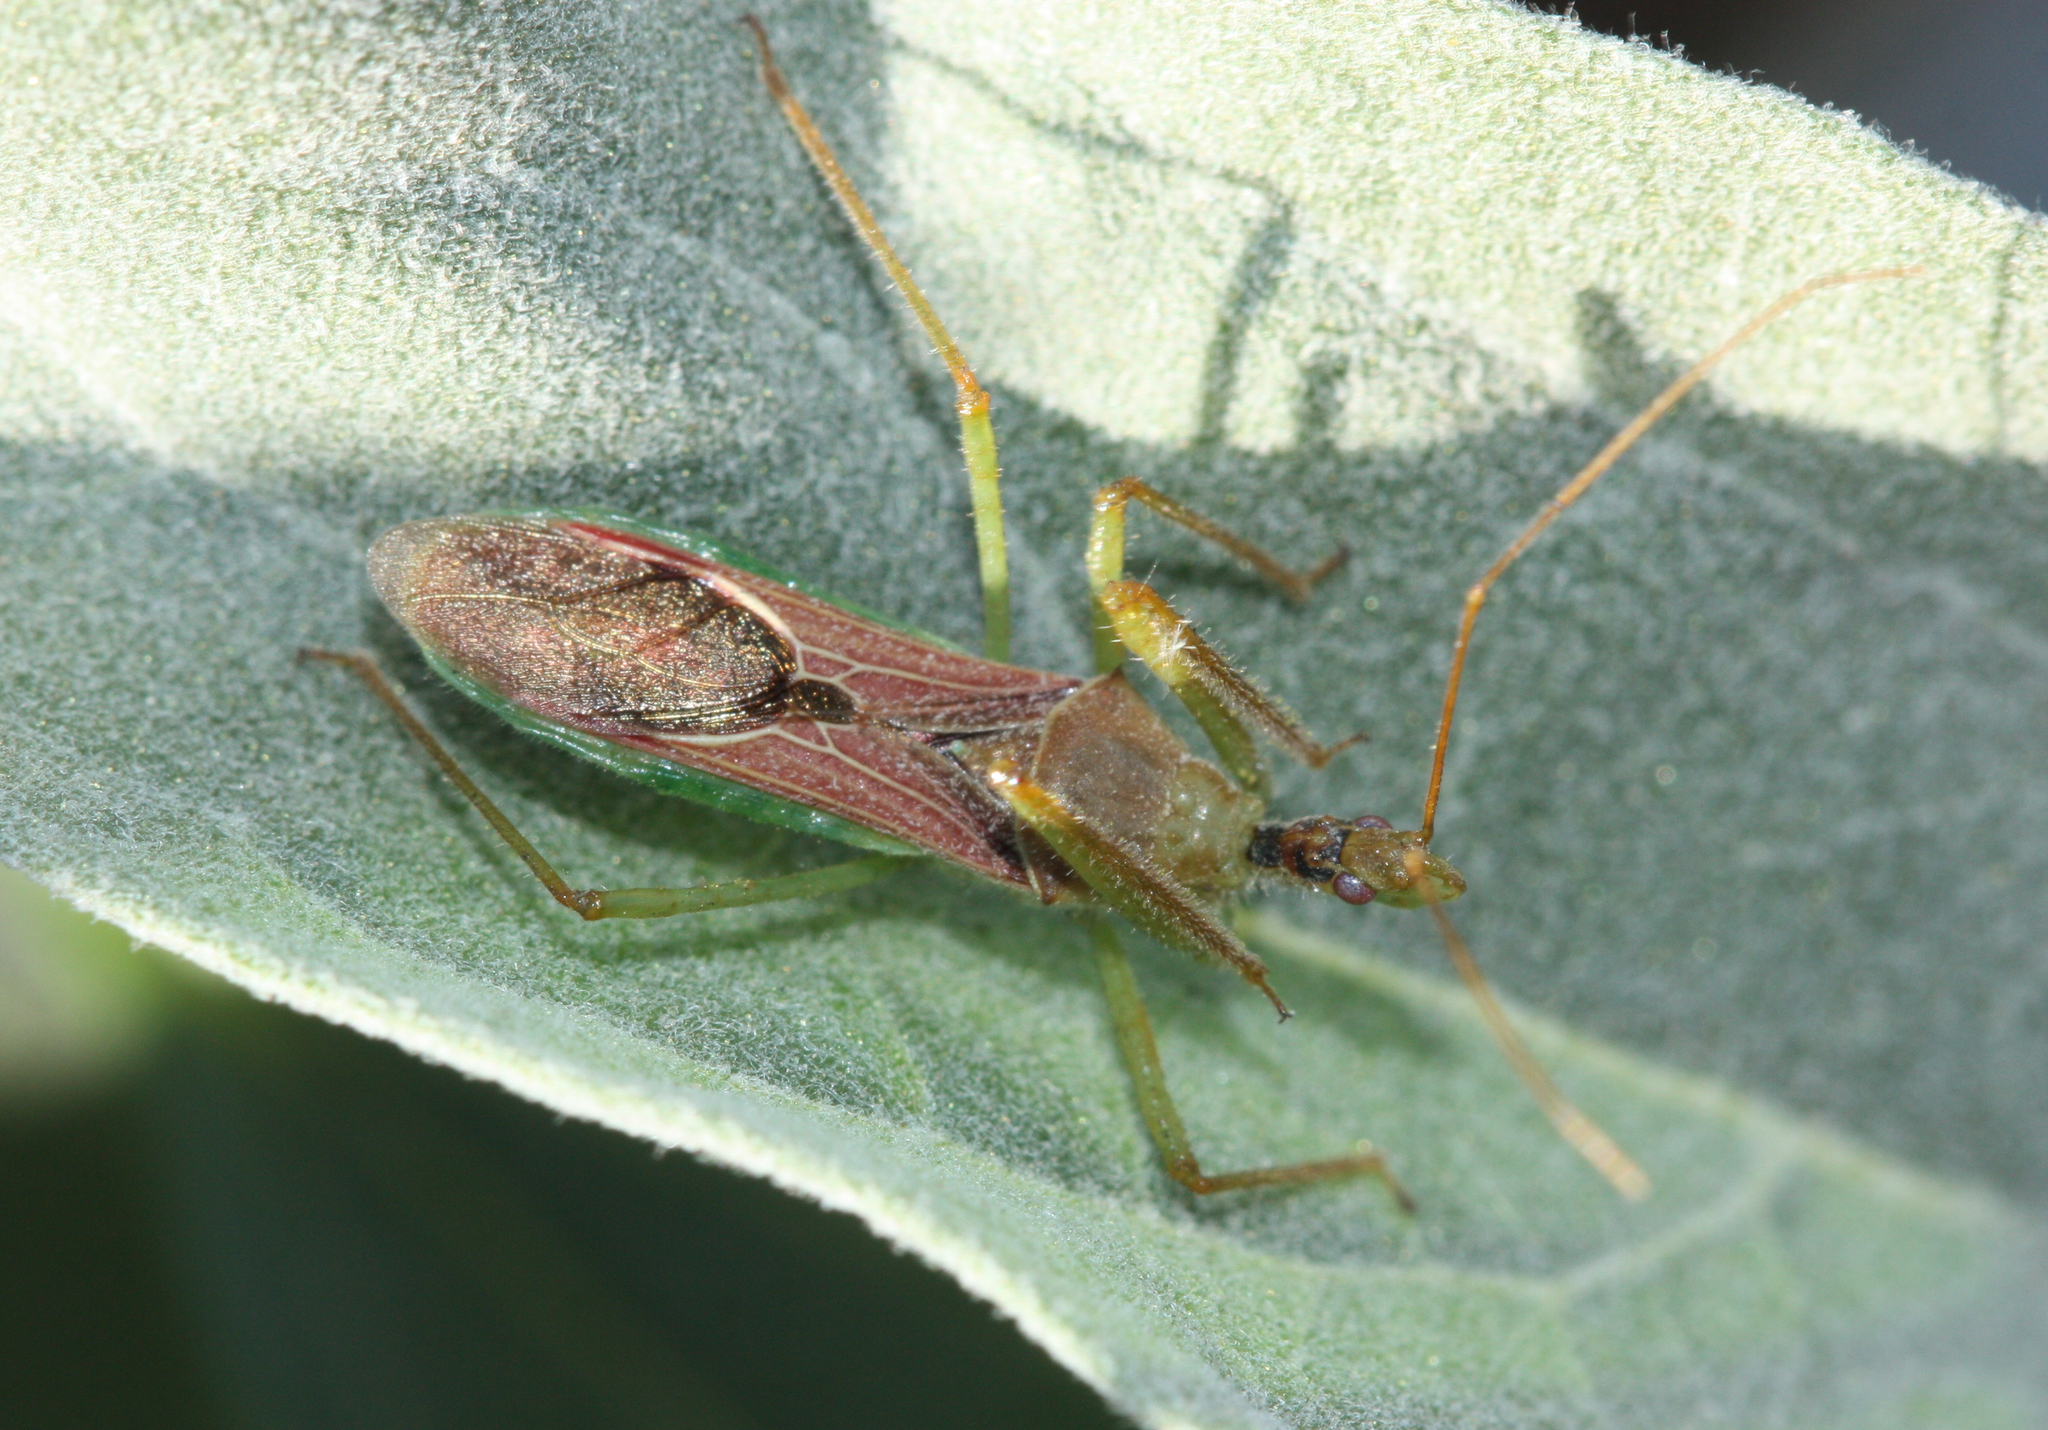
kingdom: Animalia
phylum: Arthropoda
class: Insecta
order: Hemiptera
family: Reduviidae
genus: Zelus
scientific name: Zelus renardii
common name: Assassin bug
